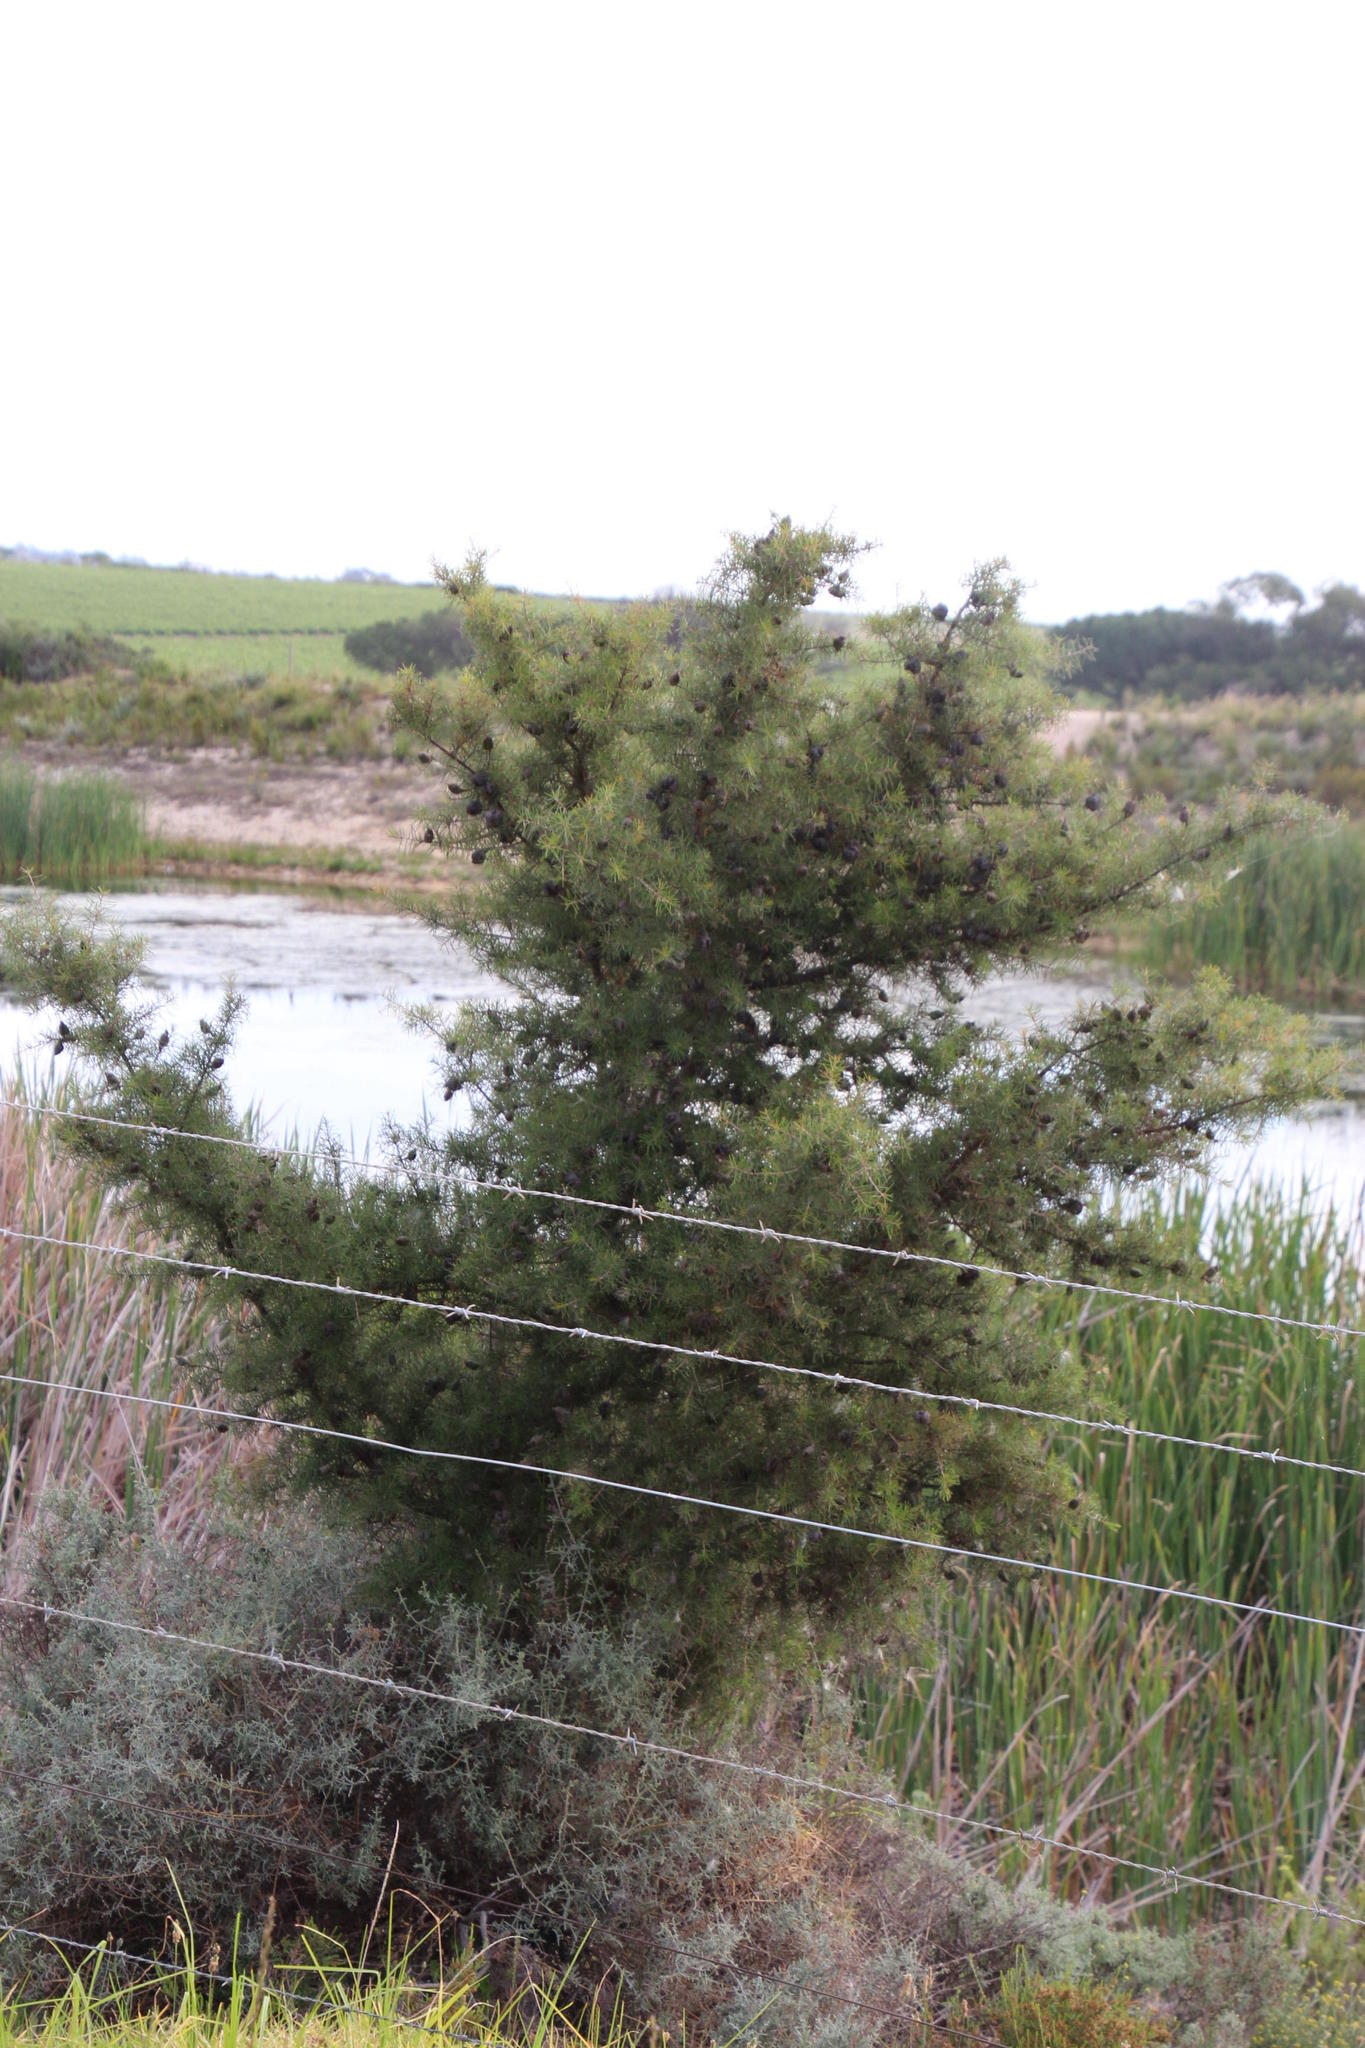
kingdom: Plantae
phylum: Tracheophyta
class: Magnoliopsida
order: Proteales
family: Proteaceae
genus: Hakea
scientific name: Hakea sericea
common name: Needle bush
